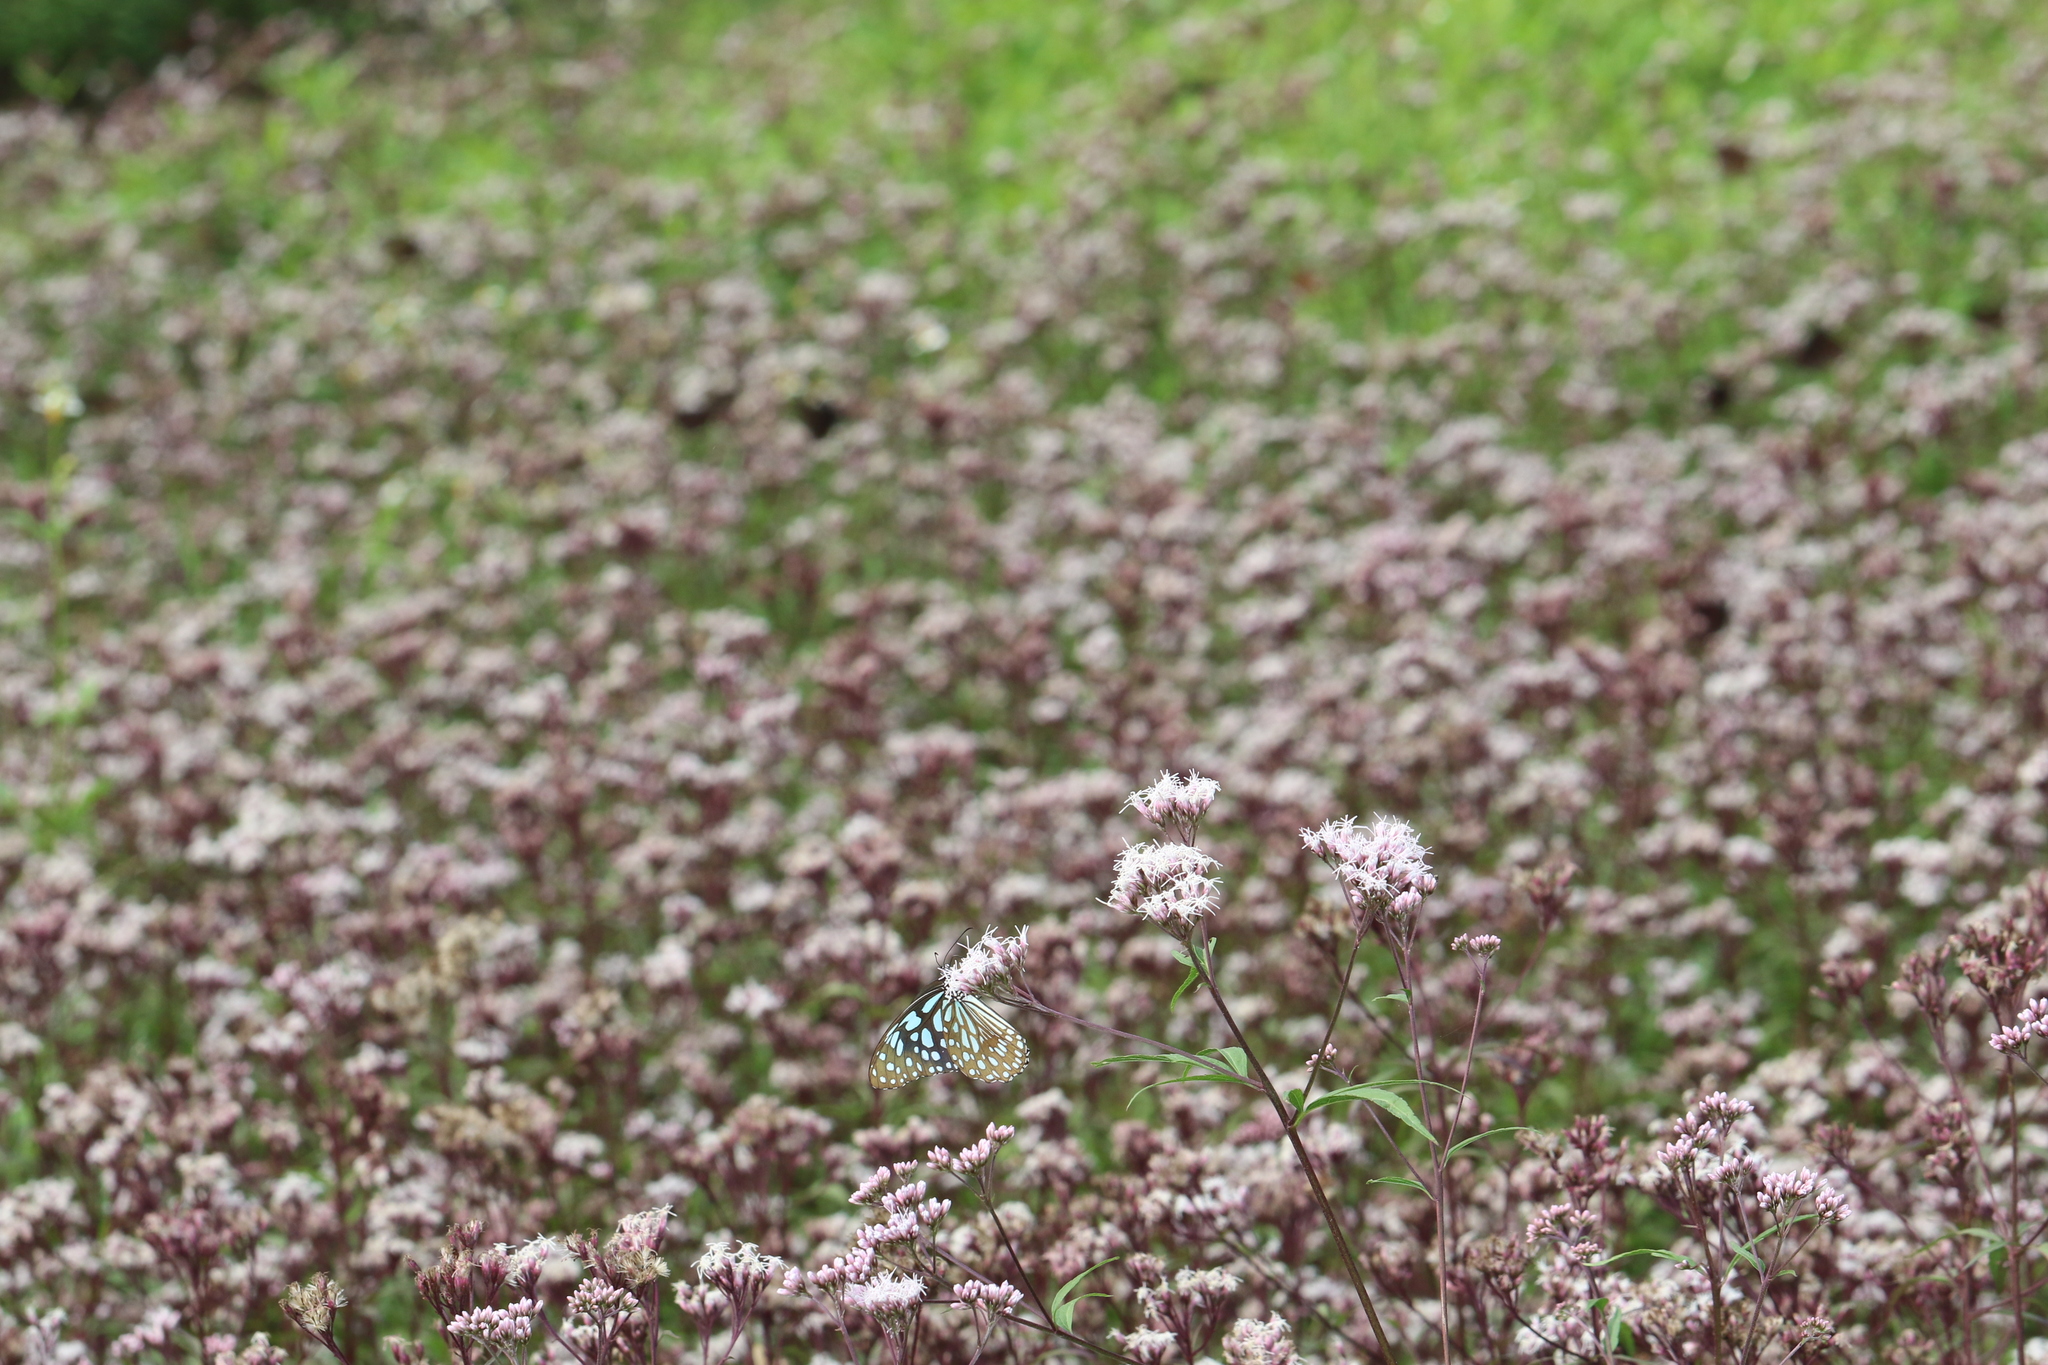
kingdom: Animalia
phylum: Arthropoda
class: Insecta
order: Lepidoptera
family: Nymphalidae
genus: Tirumala
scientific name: Tirumala limniace
